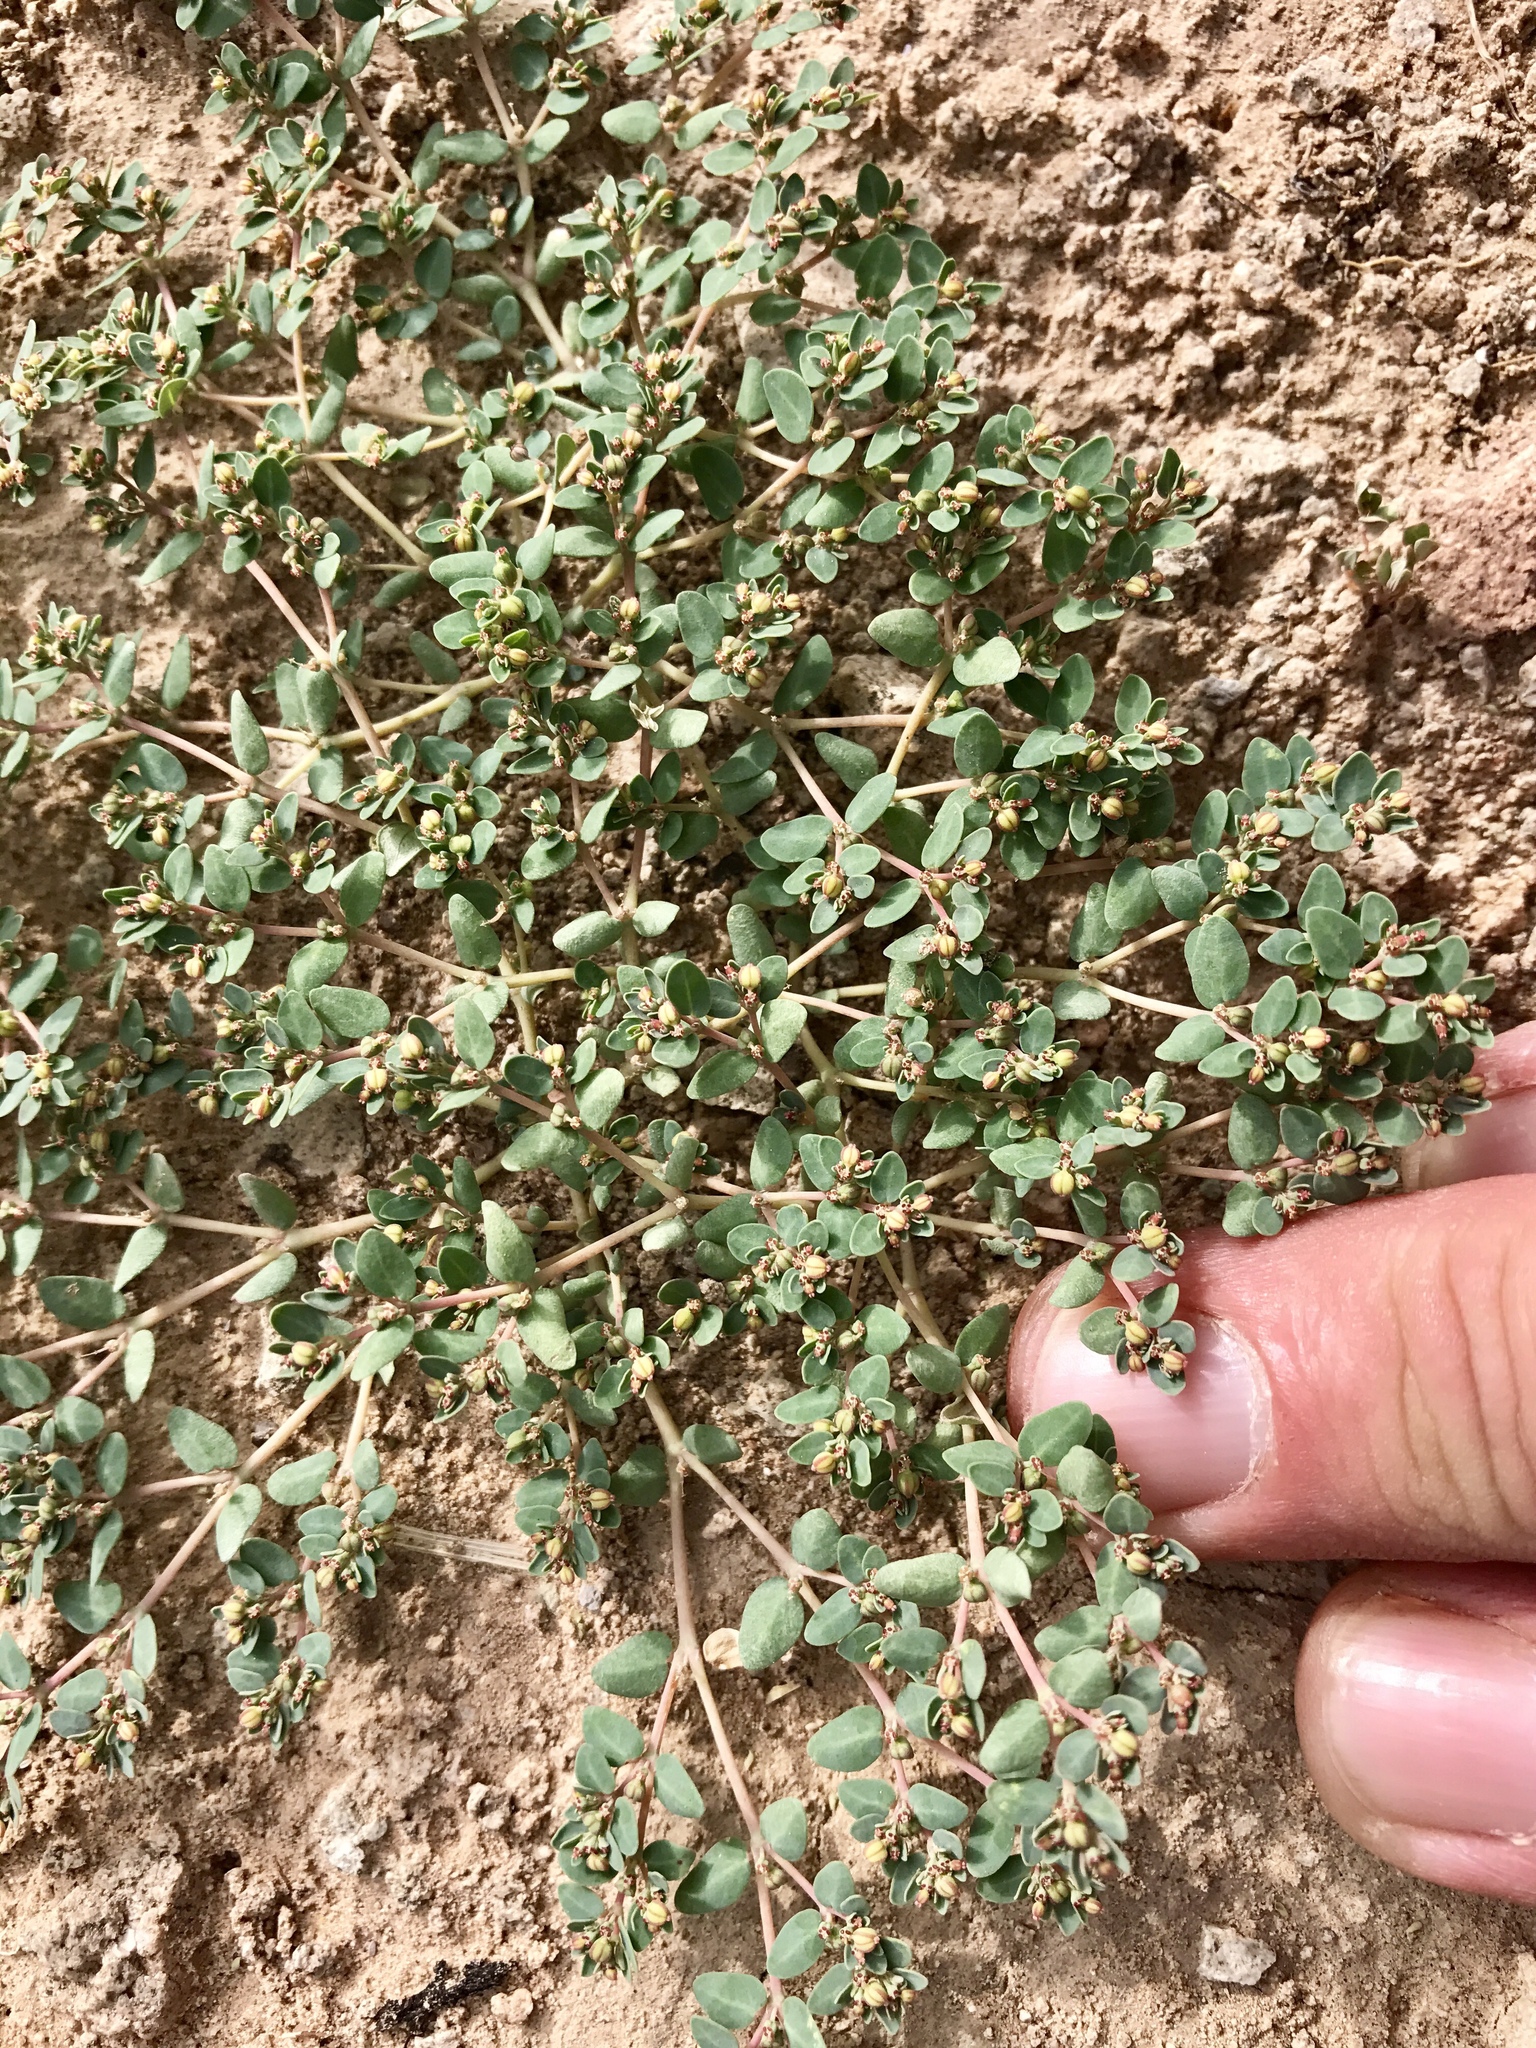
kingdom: Plantae
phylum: Tracheophyta
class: Magnoliopsida
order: Malpighiales
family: Euphorbiaceae
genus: Euphorbia
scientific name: Euphorbia micromera
